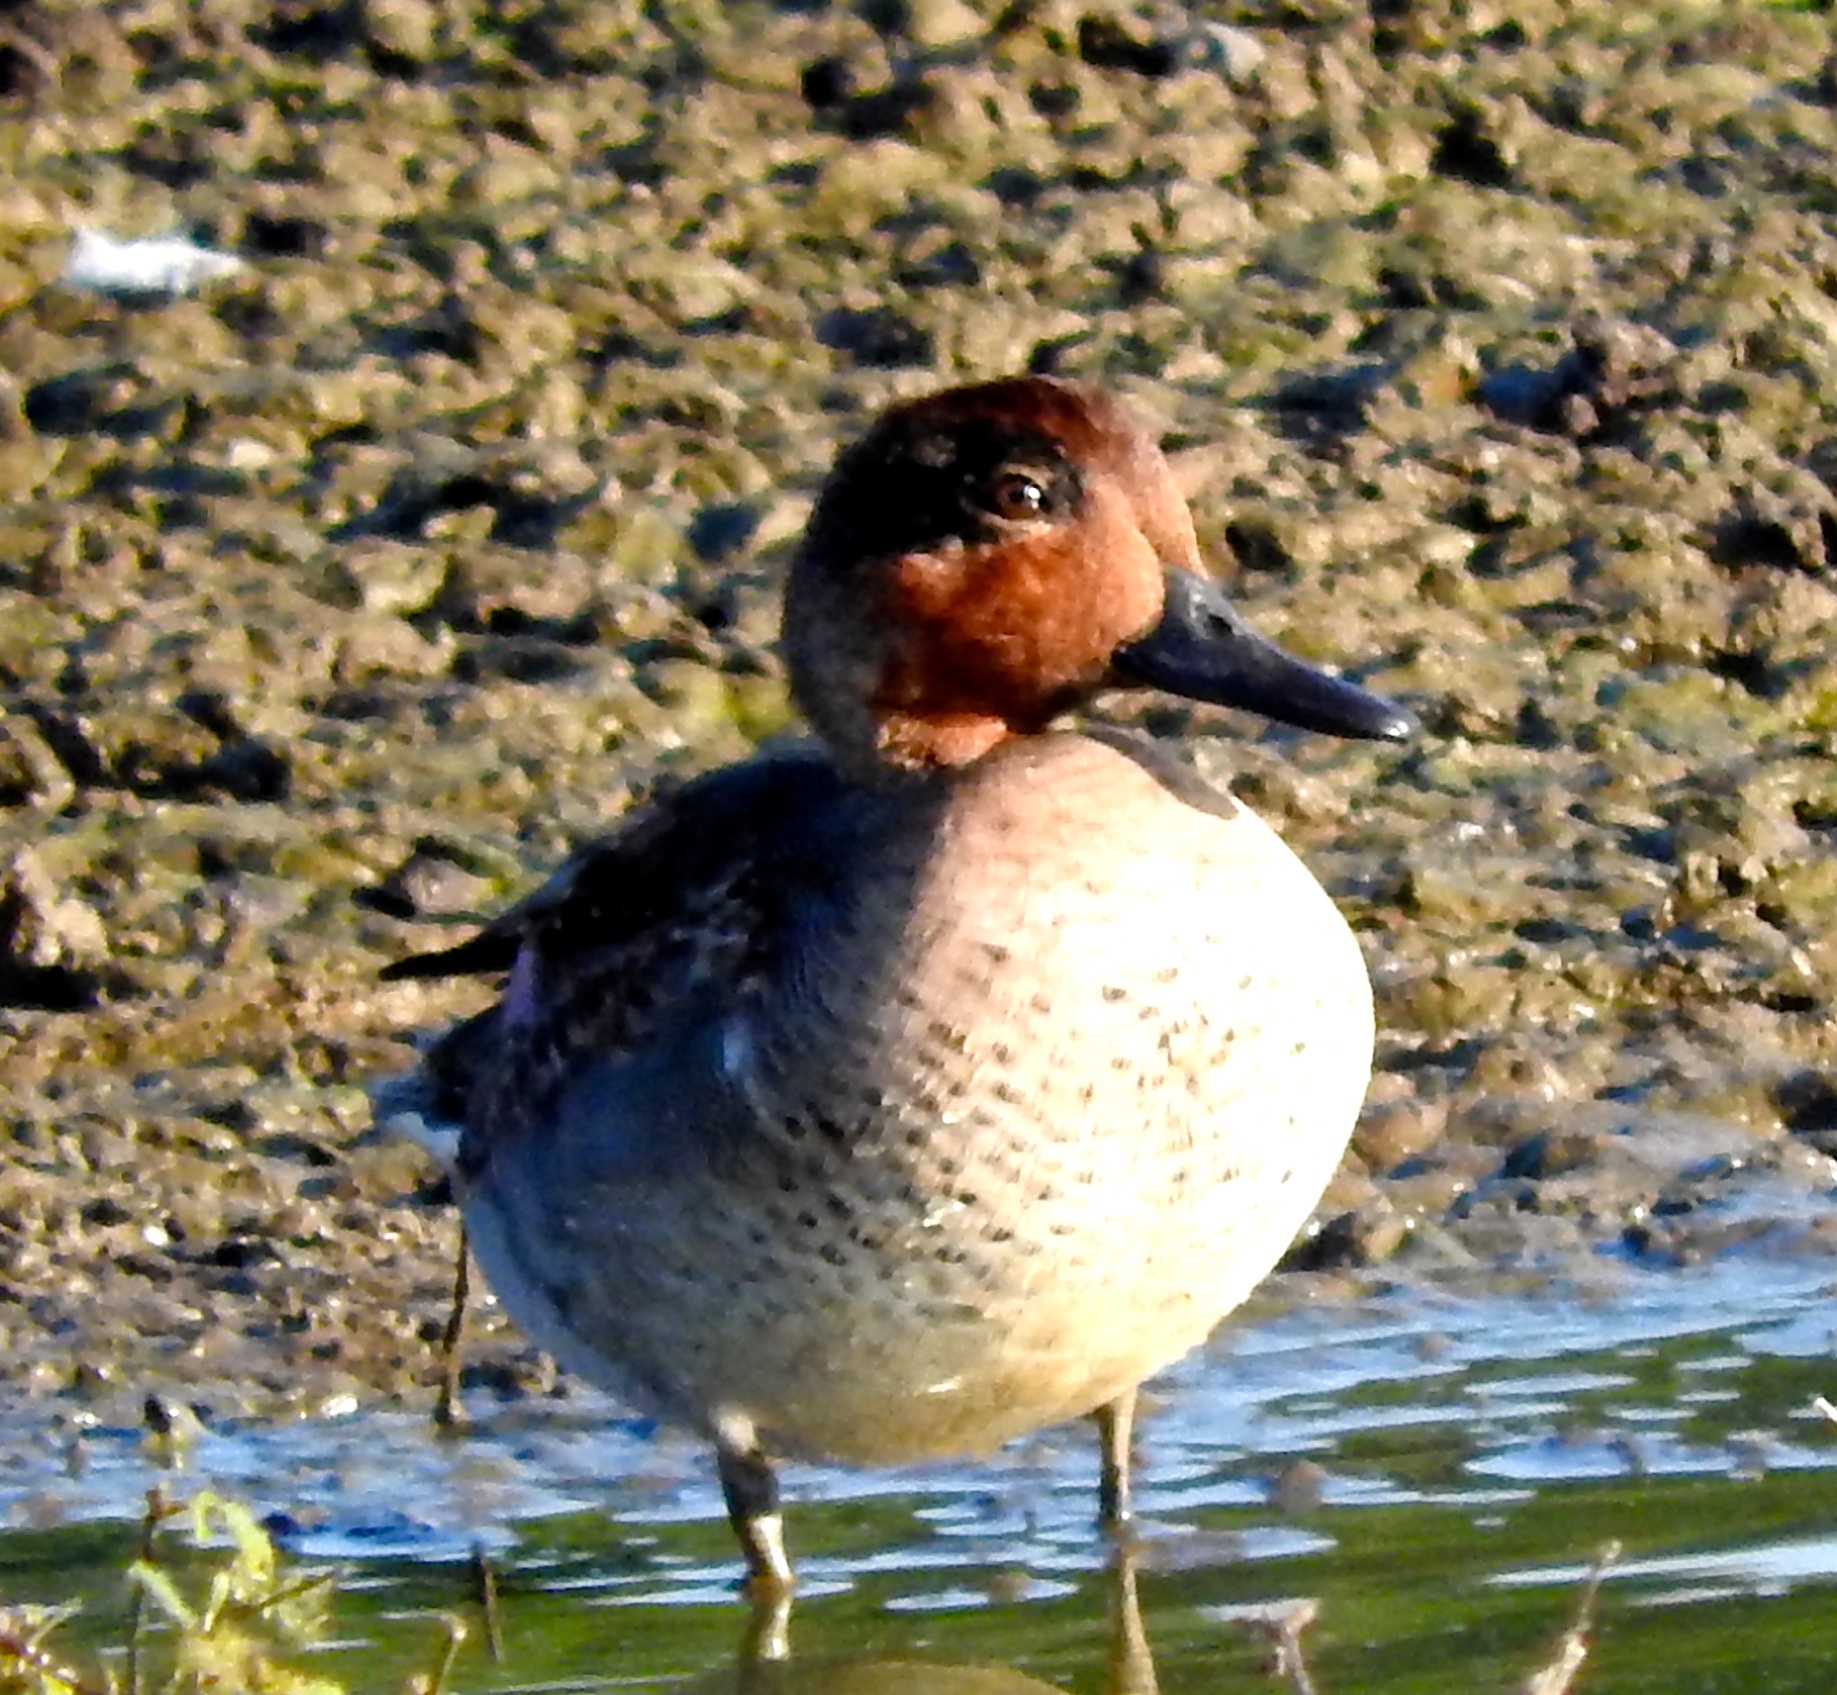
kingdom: Animalia
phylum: Chordata
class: Aves
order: Anseriformes
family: Anatidae
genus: Anas
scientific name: Anas crecca
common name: Eurasian teal
